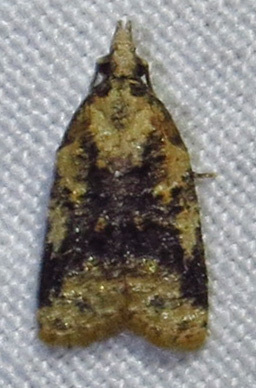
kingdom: Animalia
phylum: Arthropoda
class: Insecta
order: Lepidoptera
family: Tortricidae
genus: Platynota
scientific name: Platynota exasperatana
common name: Exasperating platynota moth
